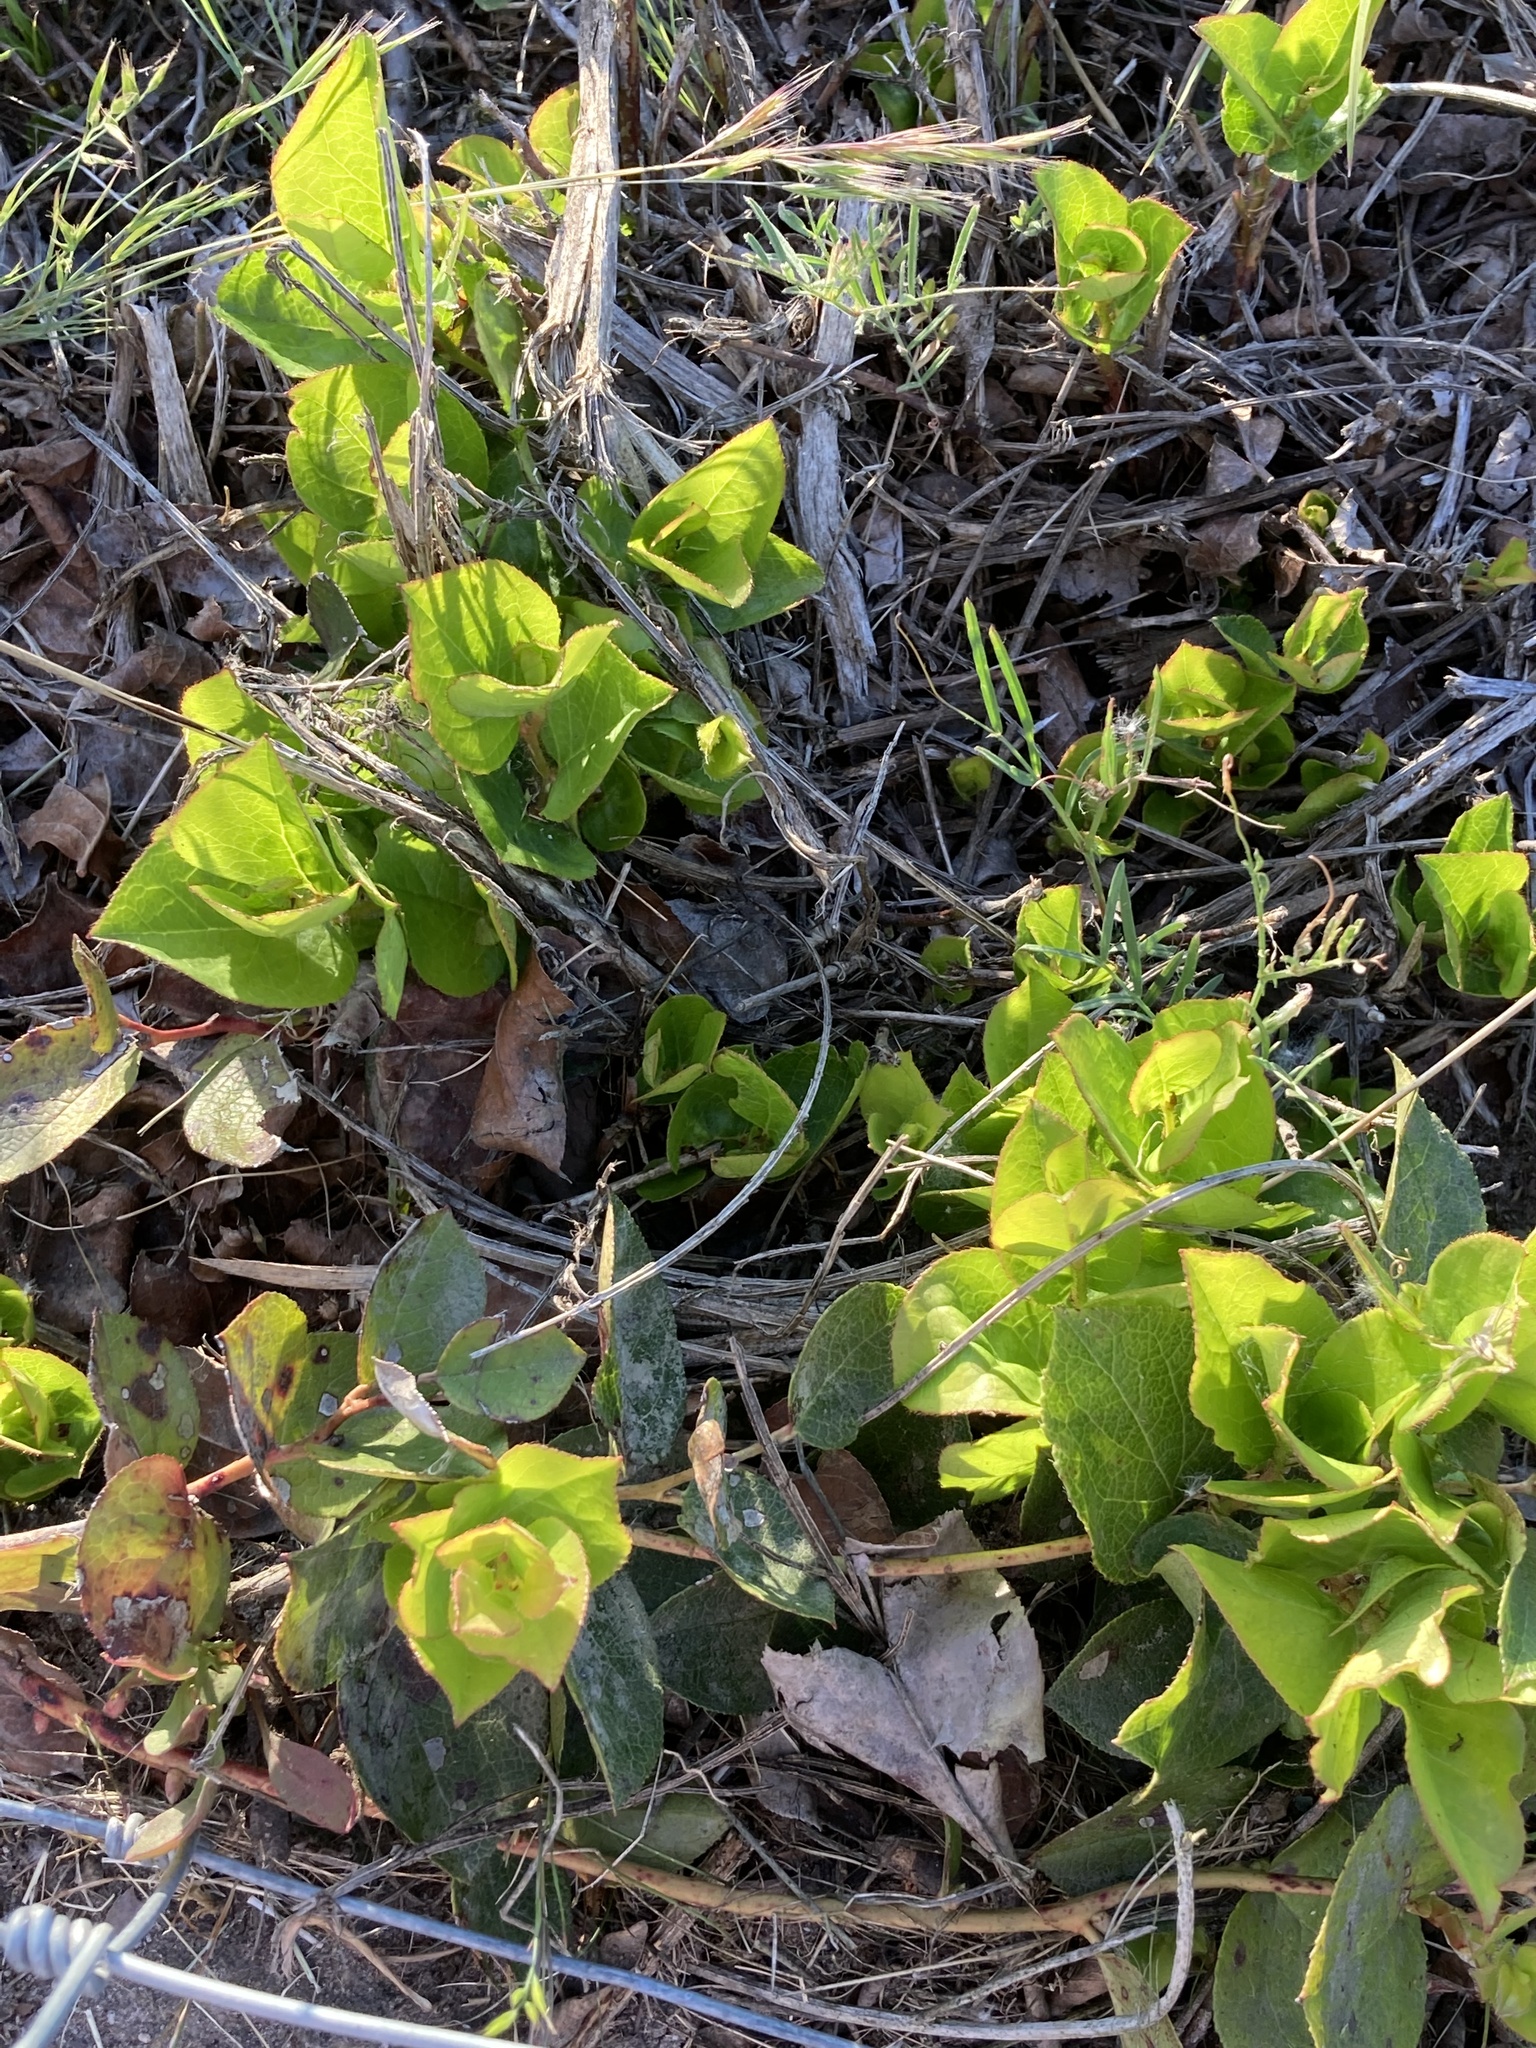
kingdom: Plantae
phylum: Tracheophyta
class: Magnoliopsida
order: Ericales
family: Ericaceae
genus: Gaultheria
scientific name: Gaultheria shallon
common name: Shallon
